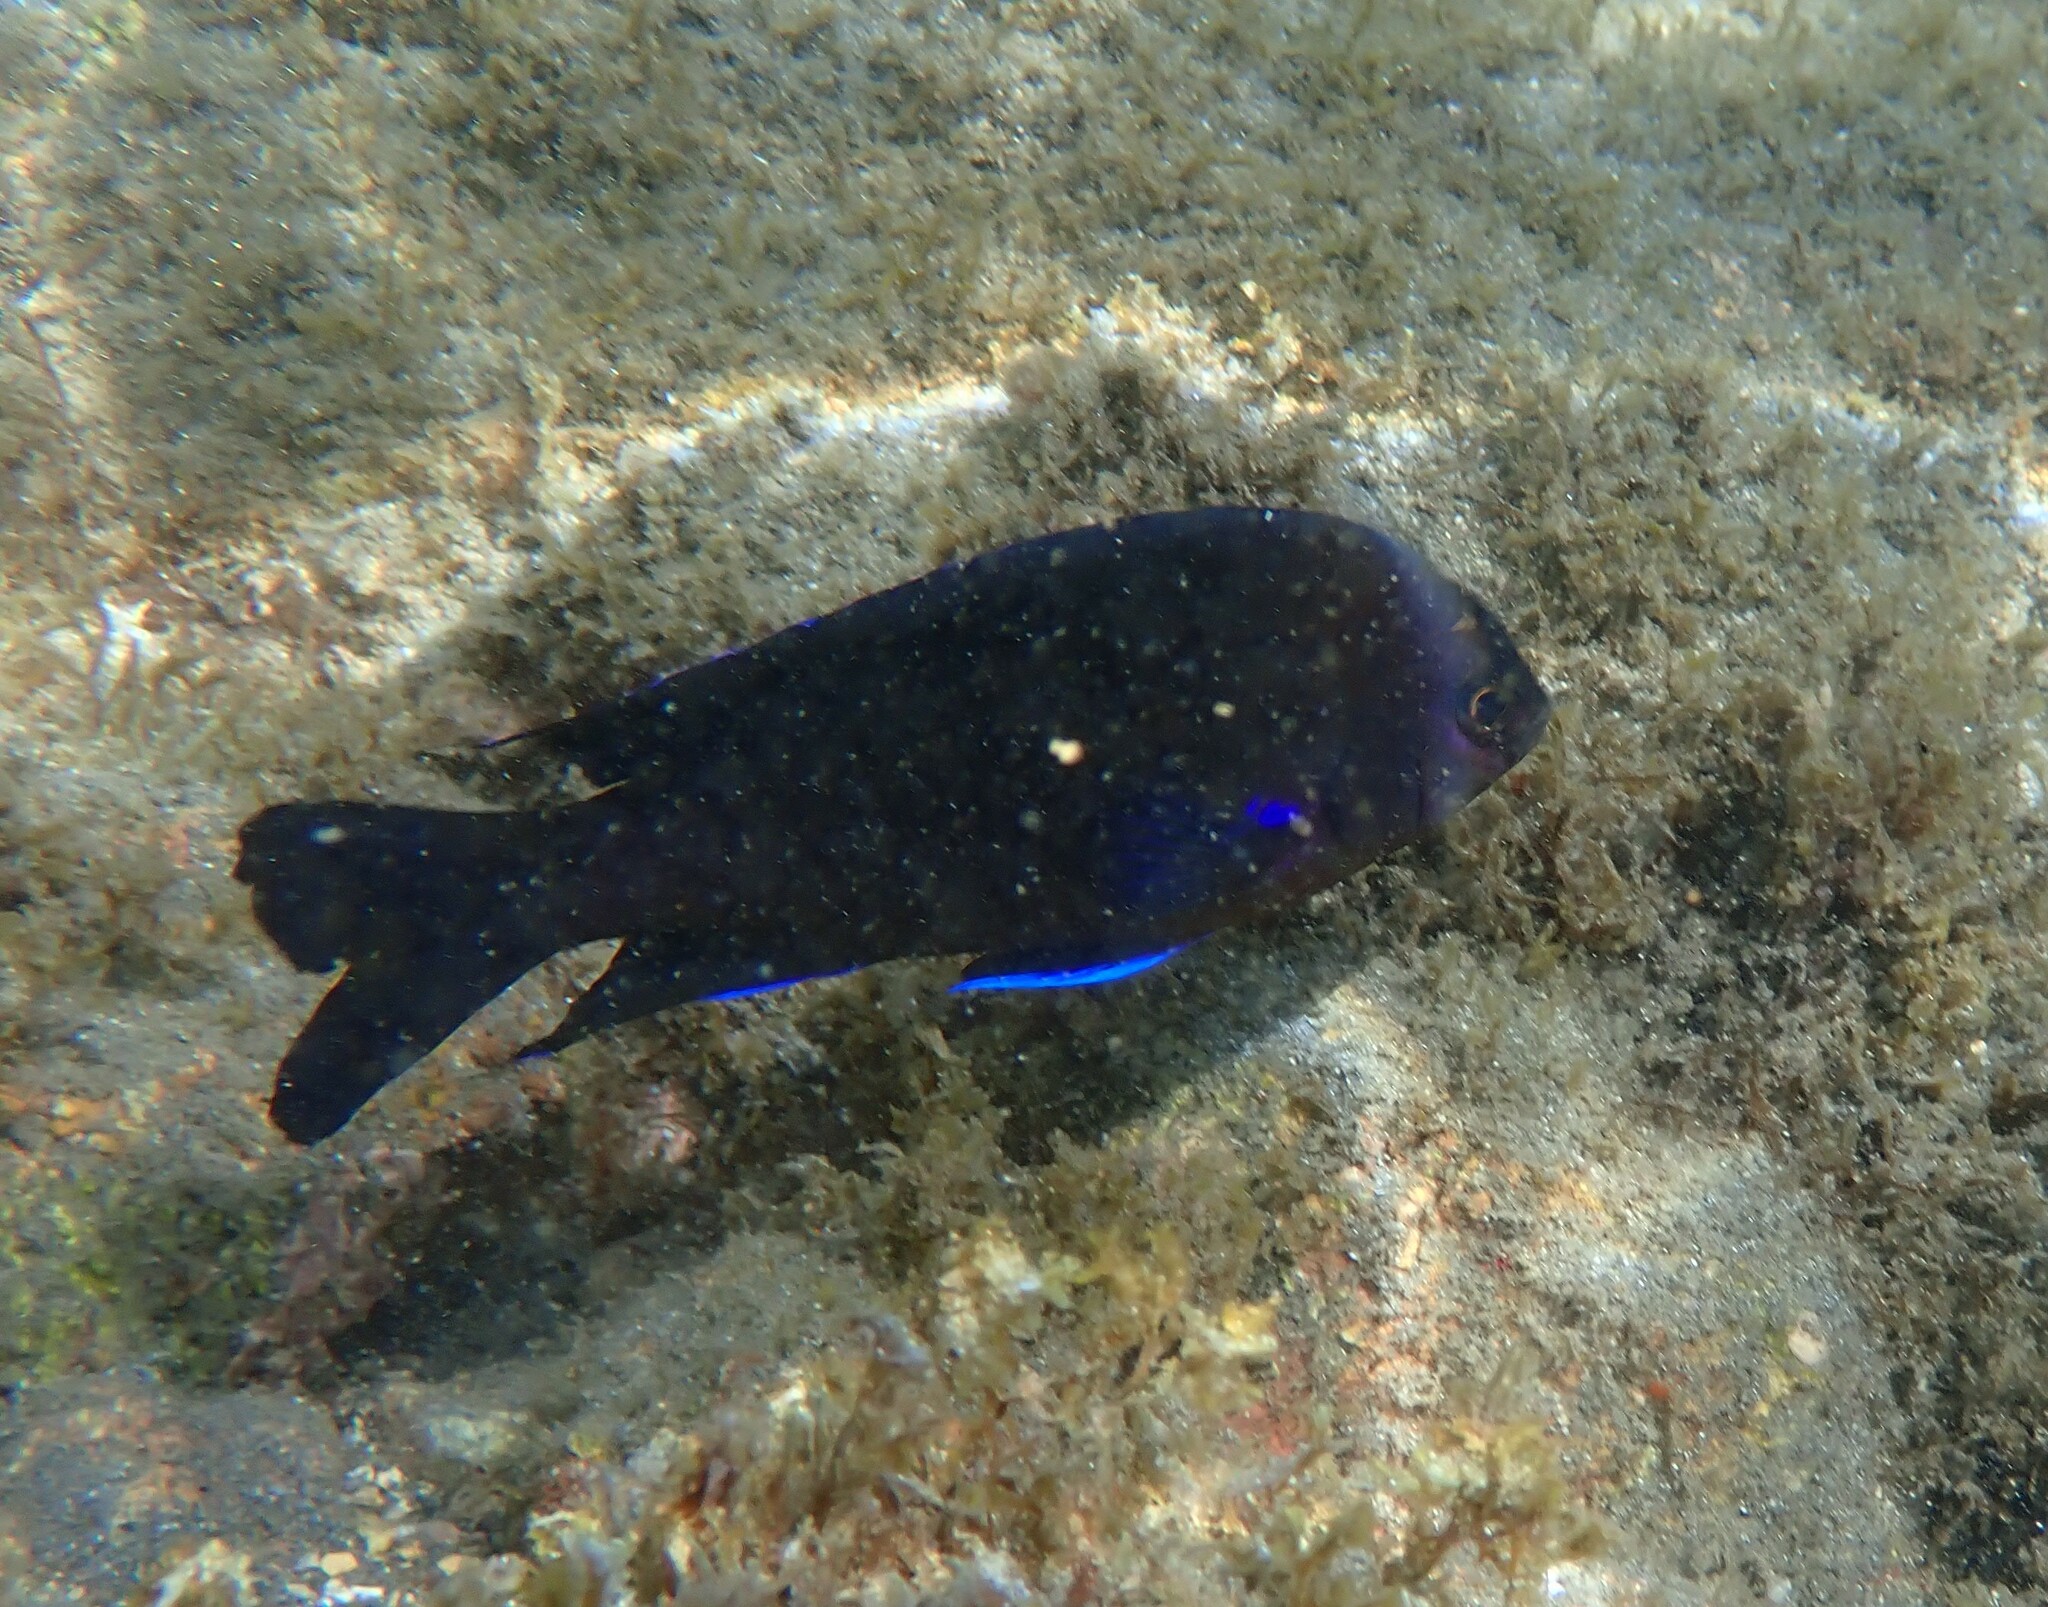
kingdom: Animalia
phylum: Chordata
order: Perciformes
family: Pomacentridae
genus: Similiparma
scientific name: Similiparma lurida
